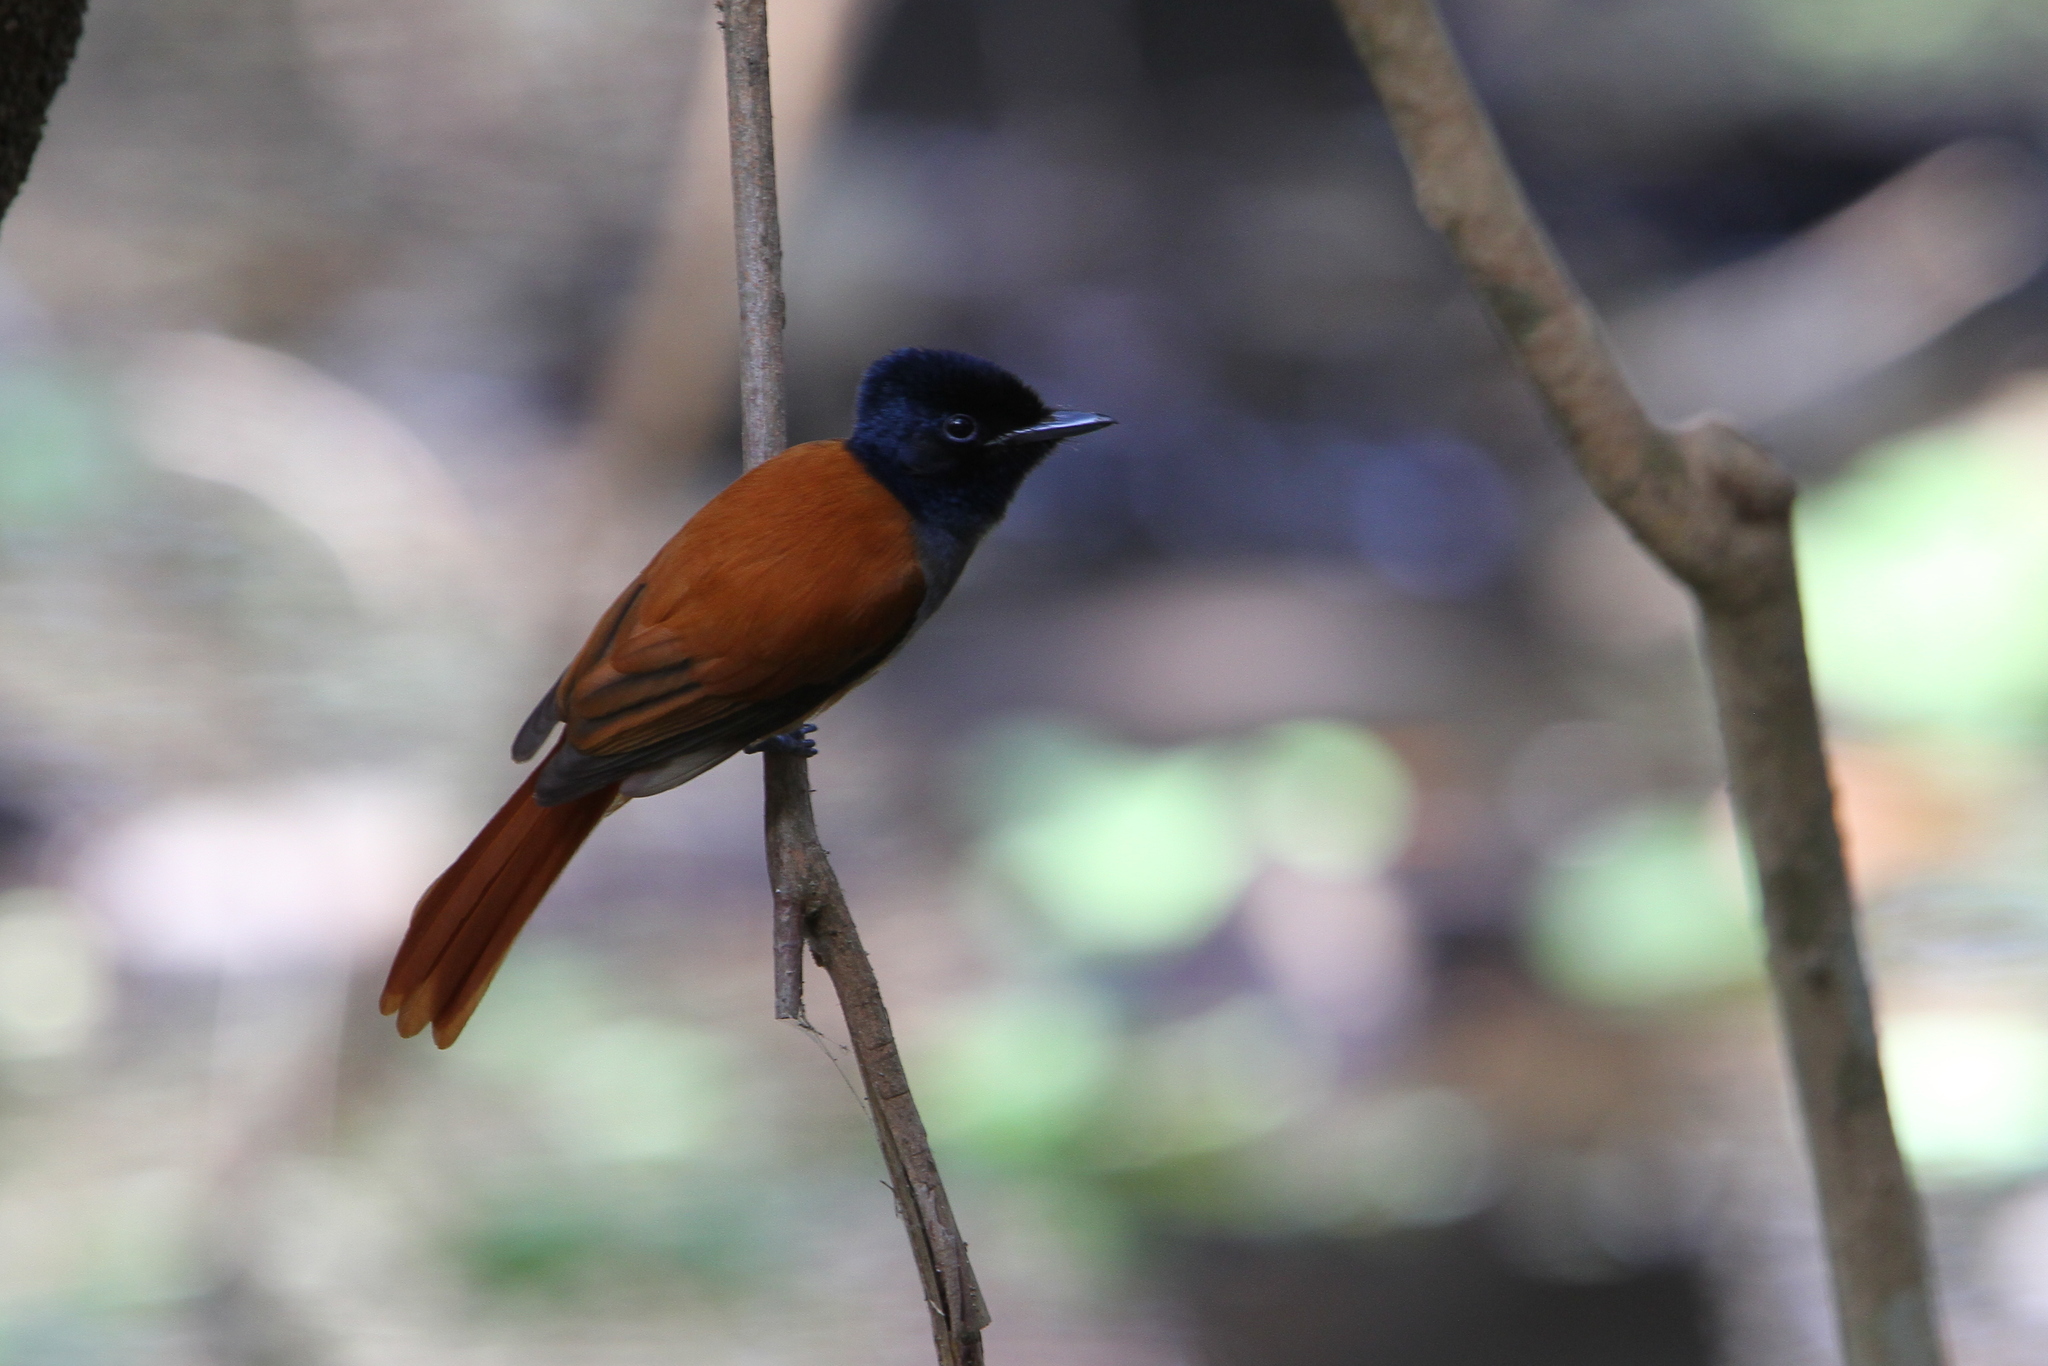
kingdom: Animalia
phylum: Chordata
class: Aves
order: Passeriformes
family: Monarchidae
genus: Terpsiphone
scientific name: Terpsiphone viridis
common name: African paradise flycatcher
